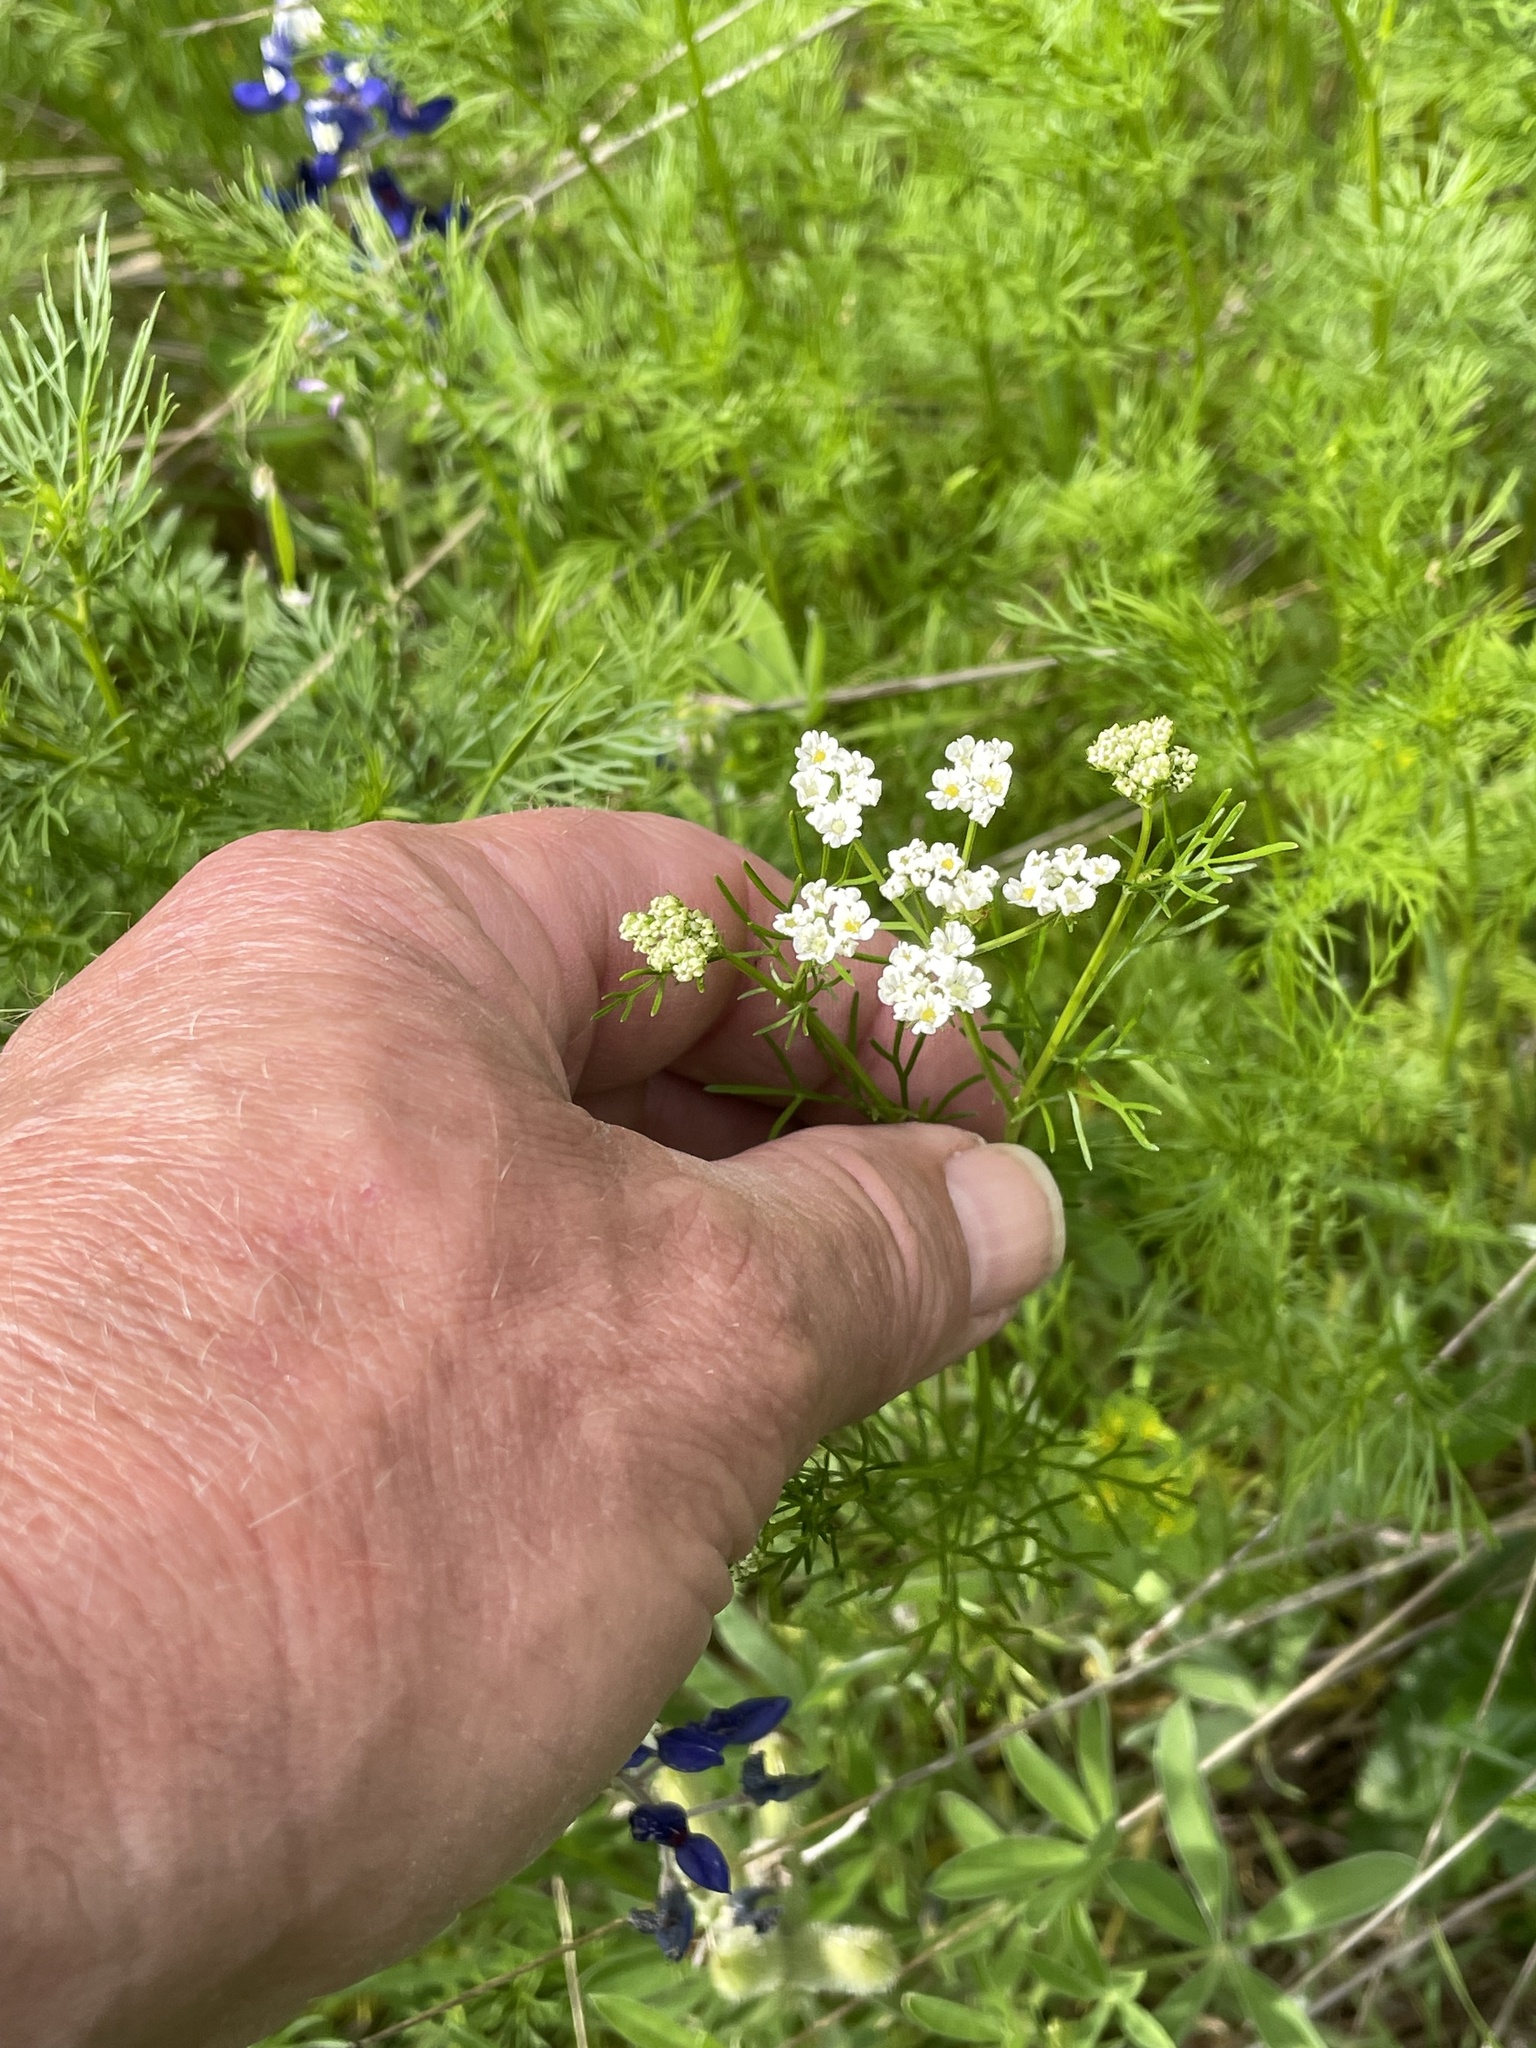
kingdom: Plantae
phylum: Tracheophyta
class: Magnoliopsida
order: Apiales
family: Apiaceae
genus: Atrema
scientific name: Atrema americanum
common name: Prairie-bishop
